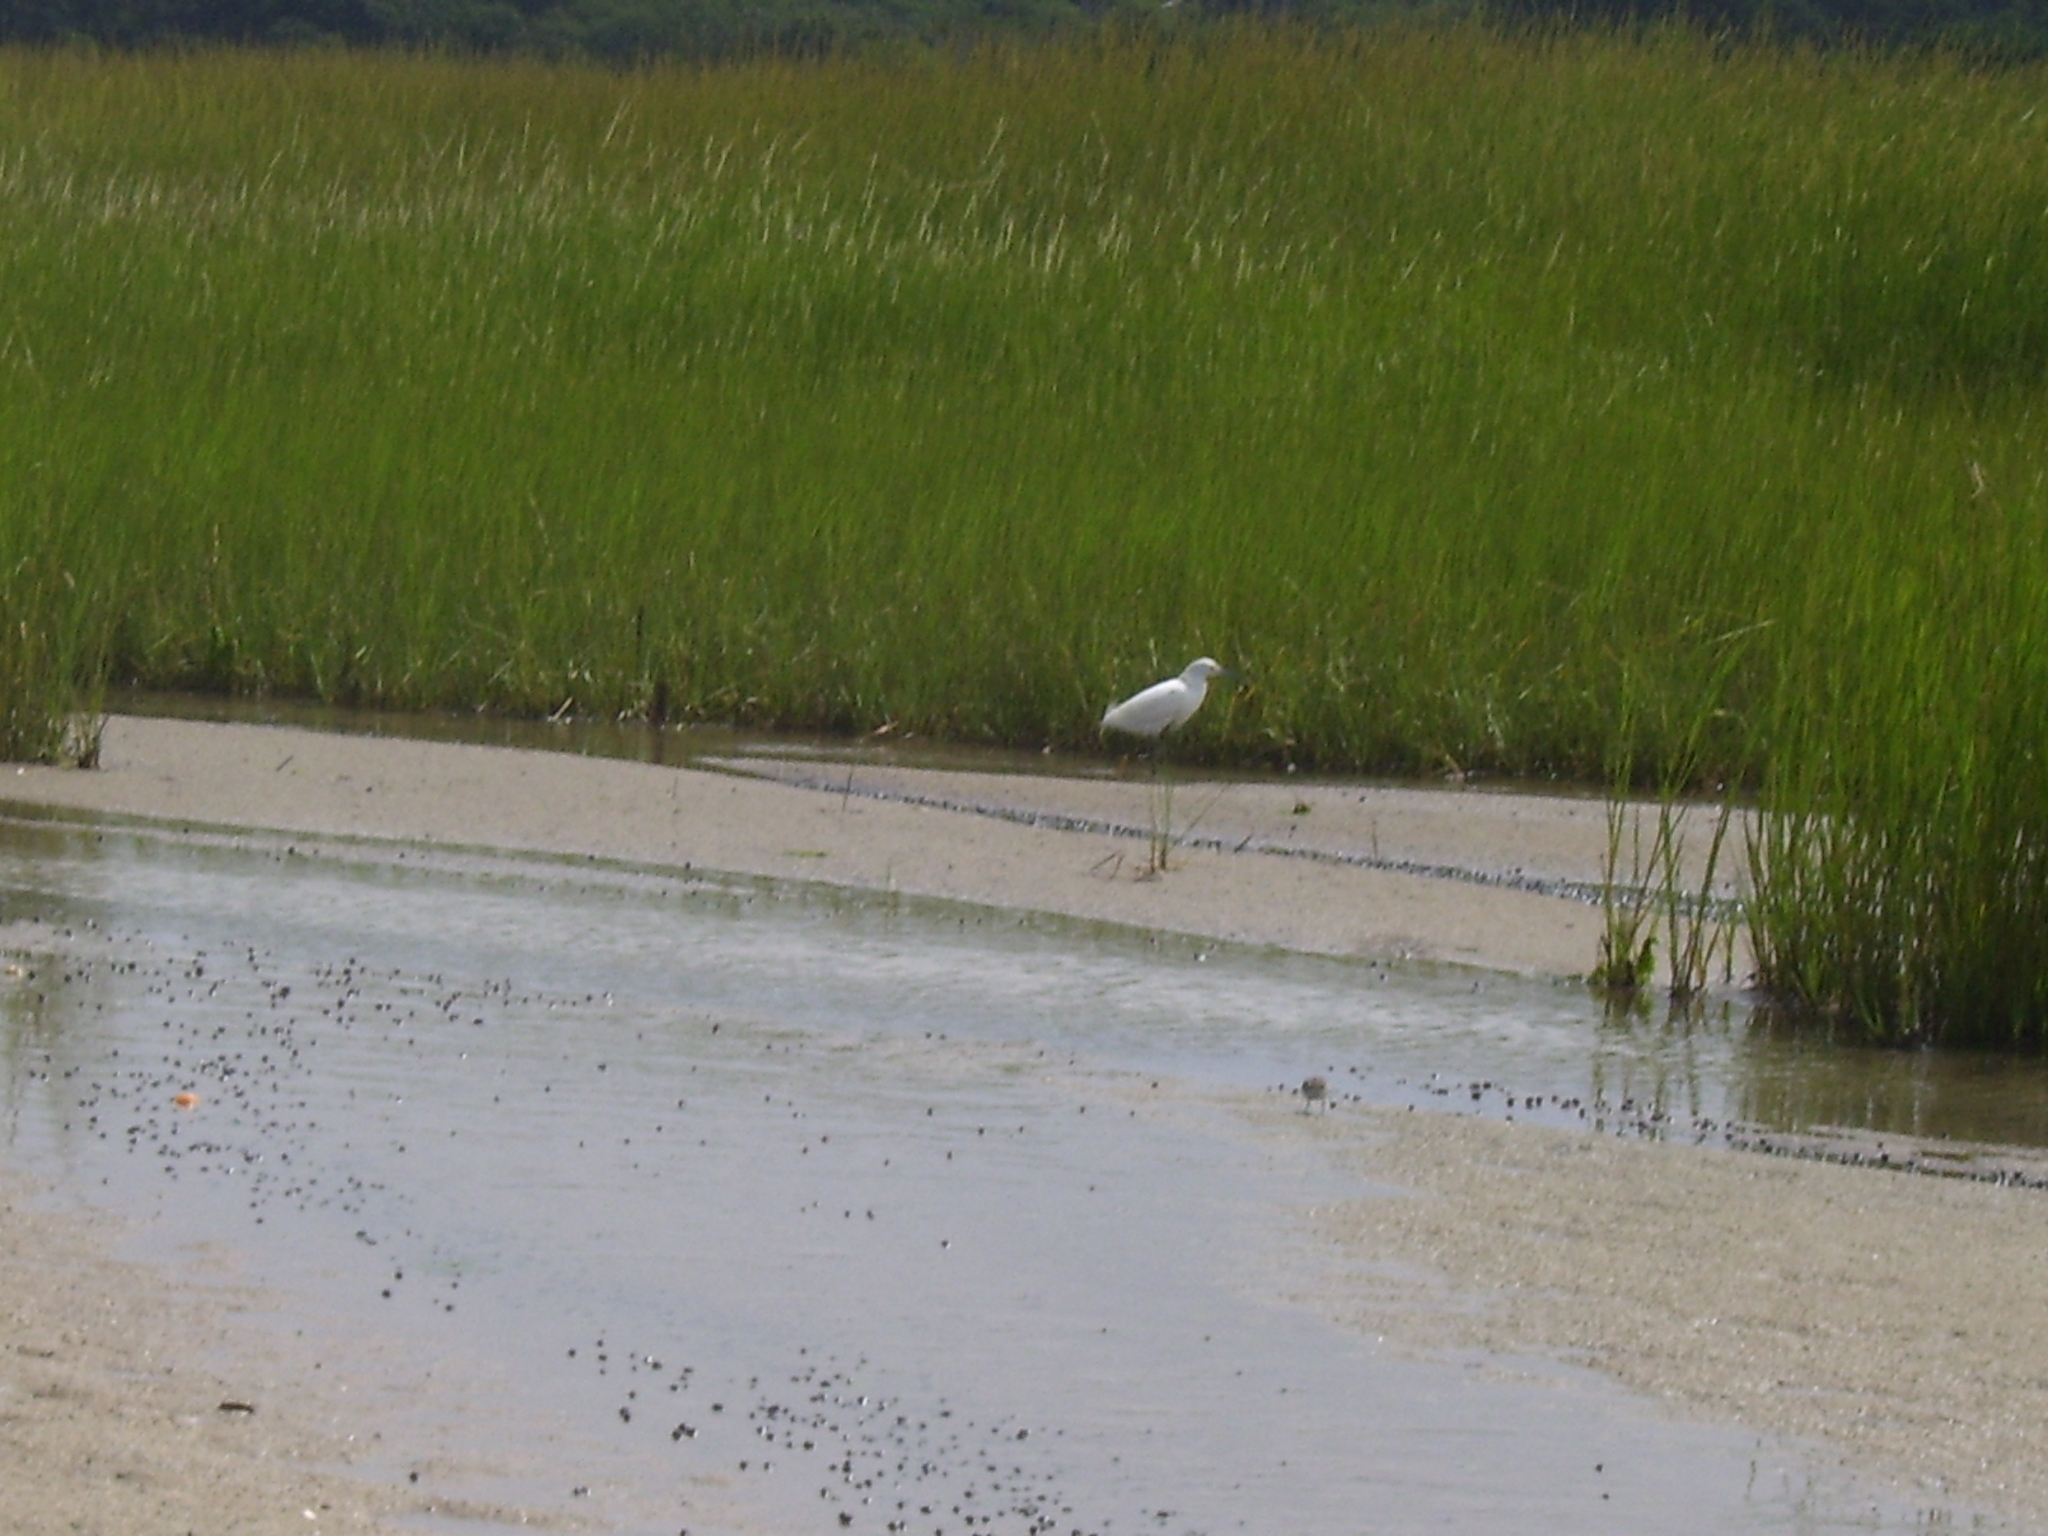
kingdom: Animalia
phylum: Chordata
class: Aves
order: Pelecaniformes
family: Ardeidae
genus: Egretta
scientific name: Egretta thula
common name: Snowy egret
